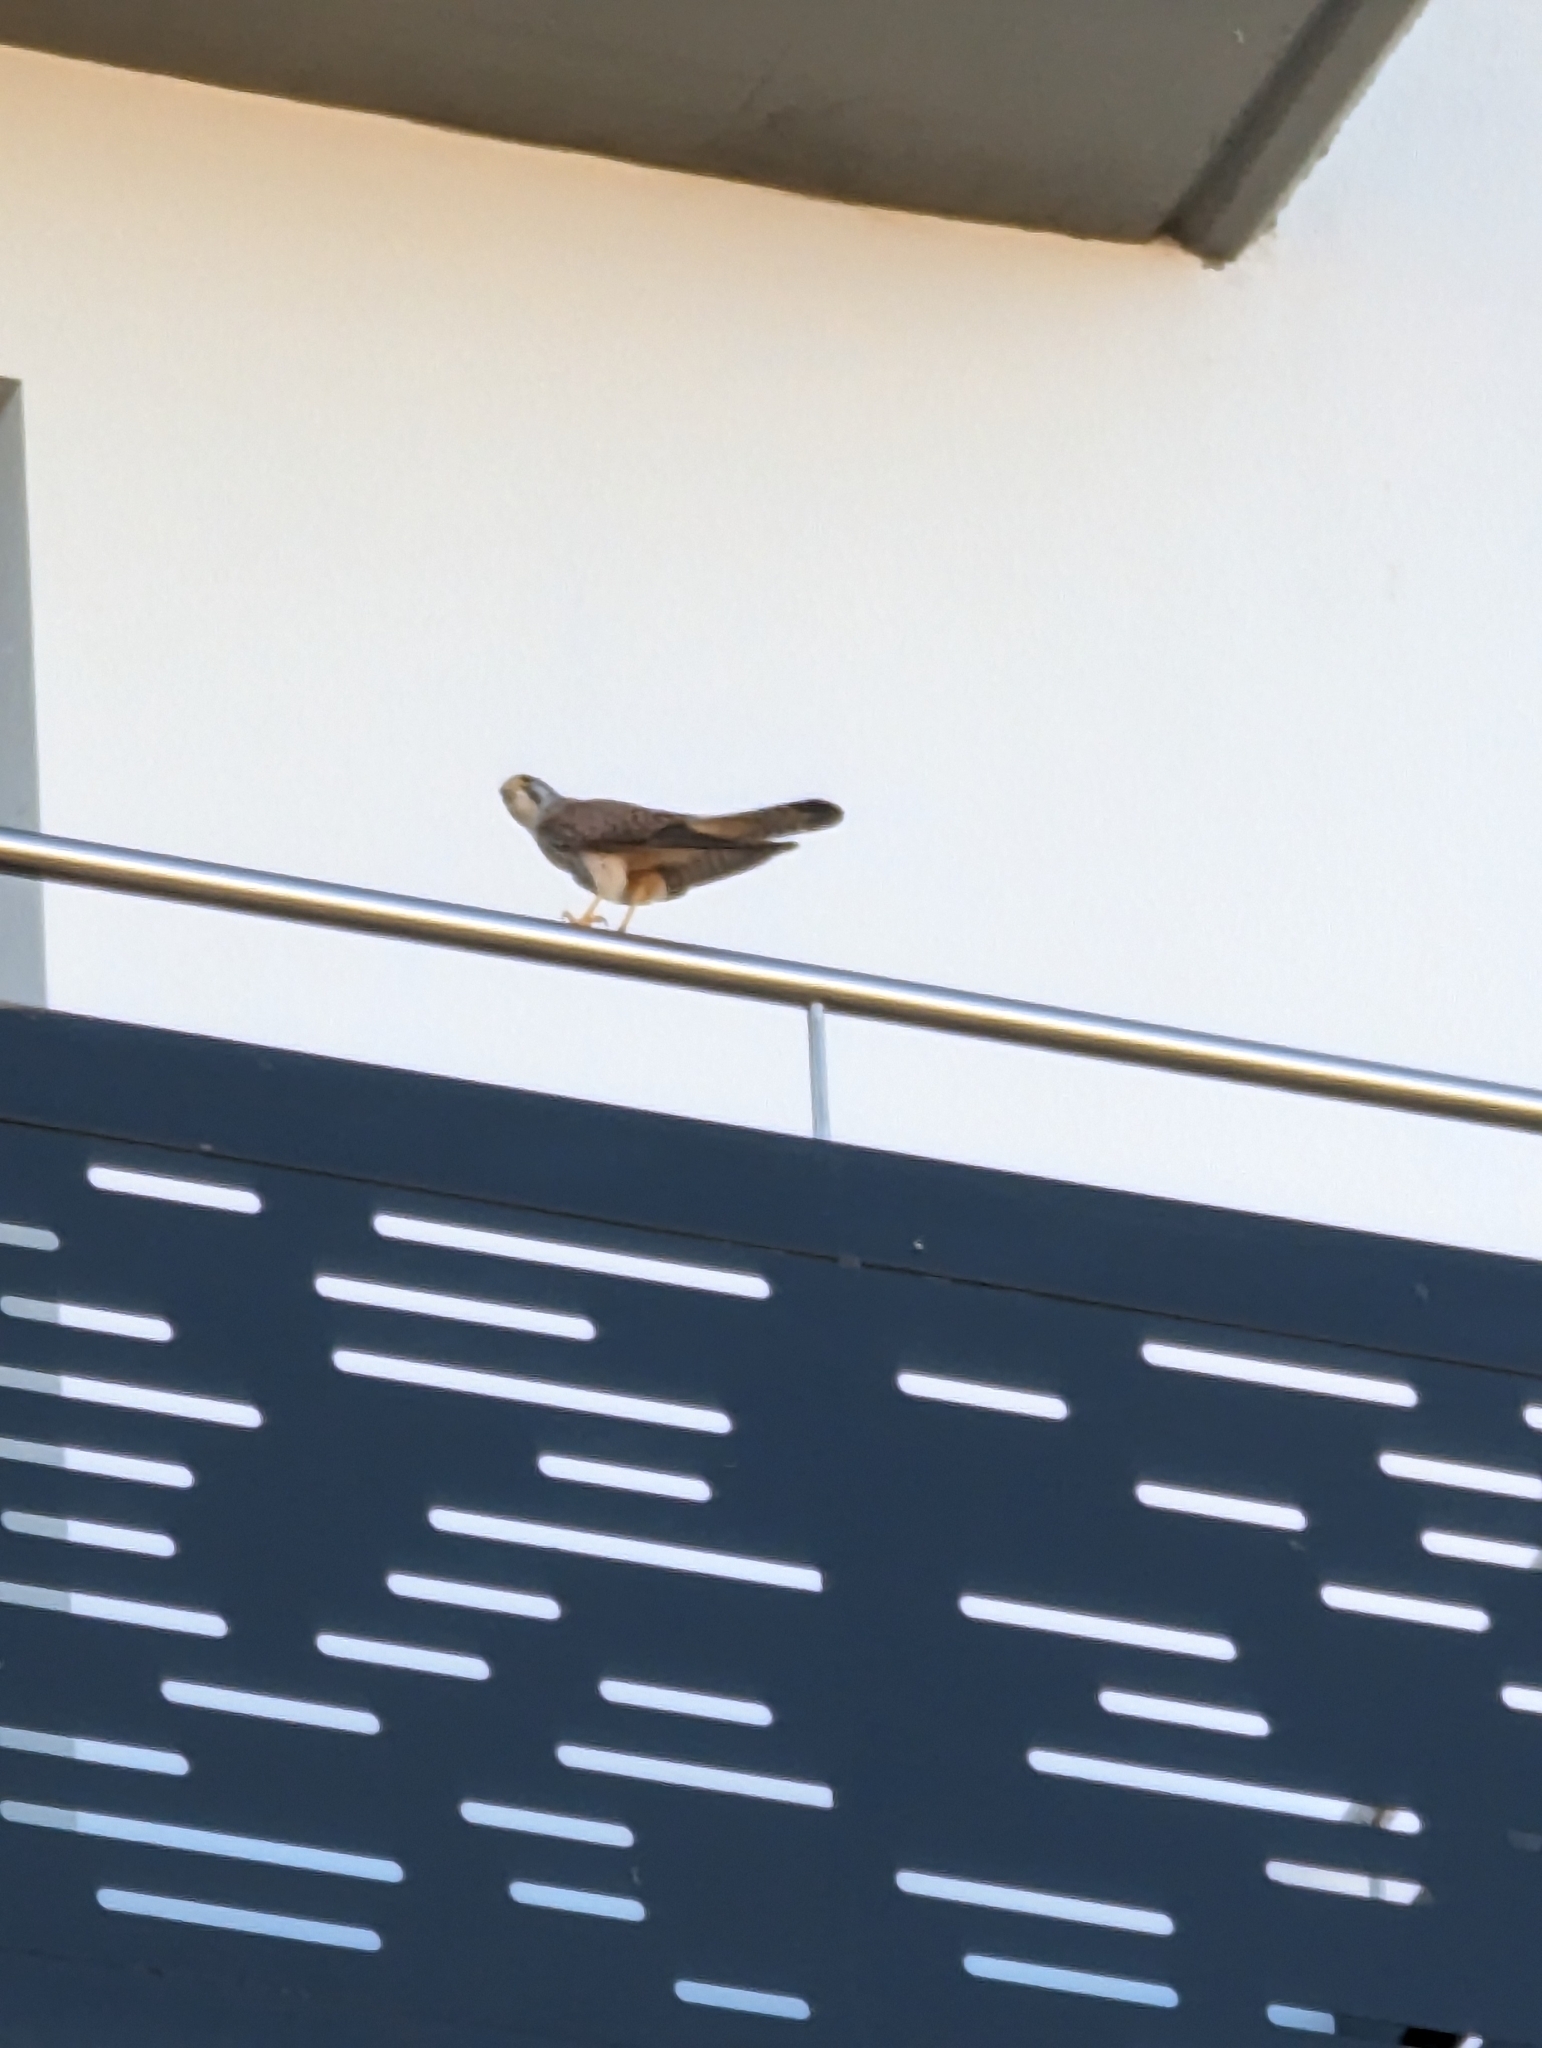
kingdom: Animalia
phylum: Chordata
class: Aves
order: Falconiformes
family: Falconidae
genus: Falco
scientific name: Falco tinnunculus
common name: Common kestrel
